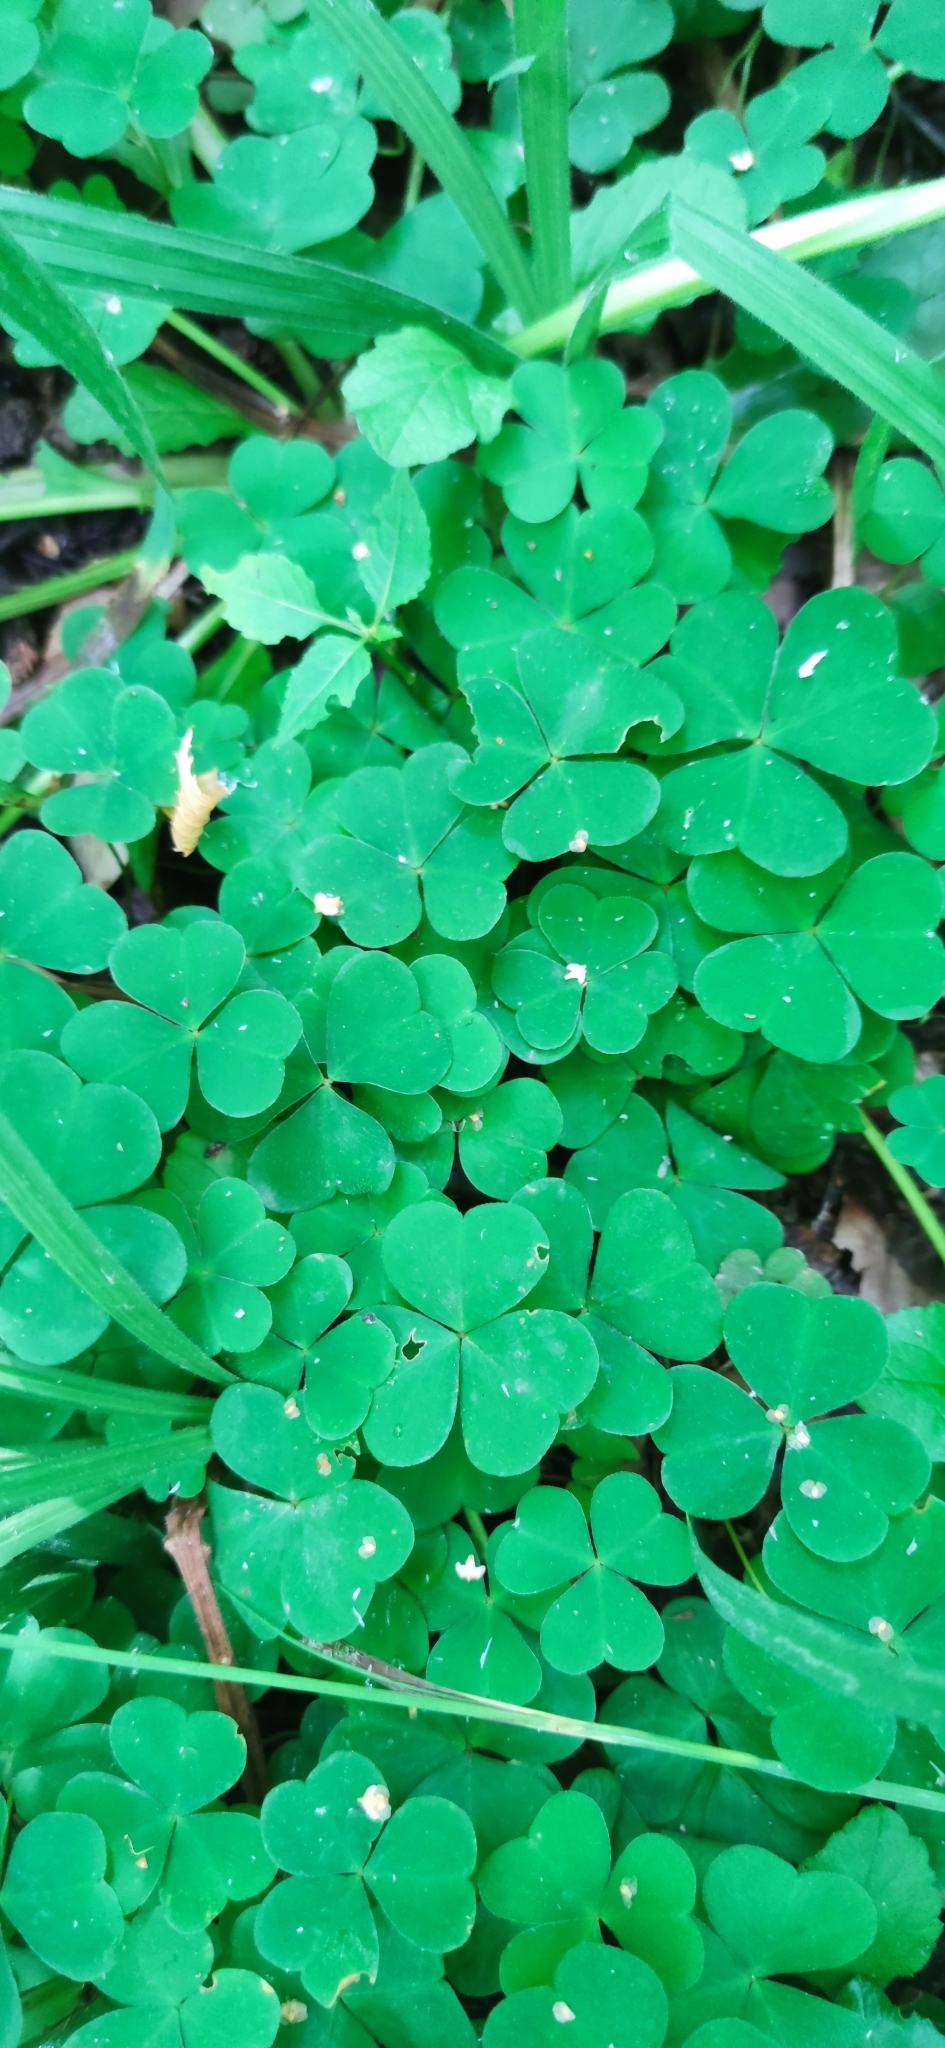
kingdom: Plantae
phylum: Tracheophyta
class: Magnoliopsida
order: Oxalidales
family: Oxalidaceae
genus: Oxalis
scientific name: Oxalis acetosella
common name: Wood-sorrel
